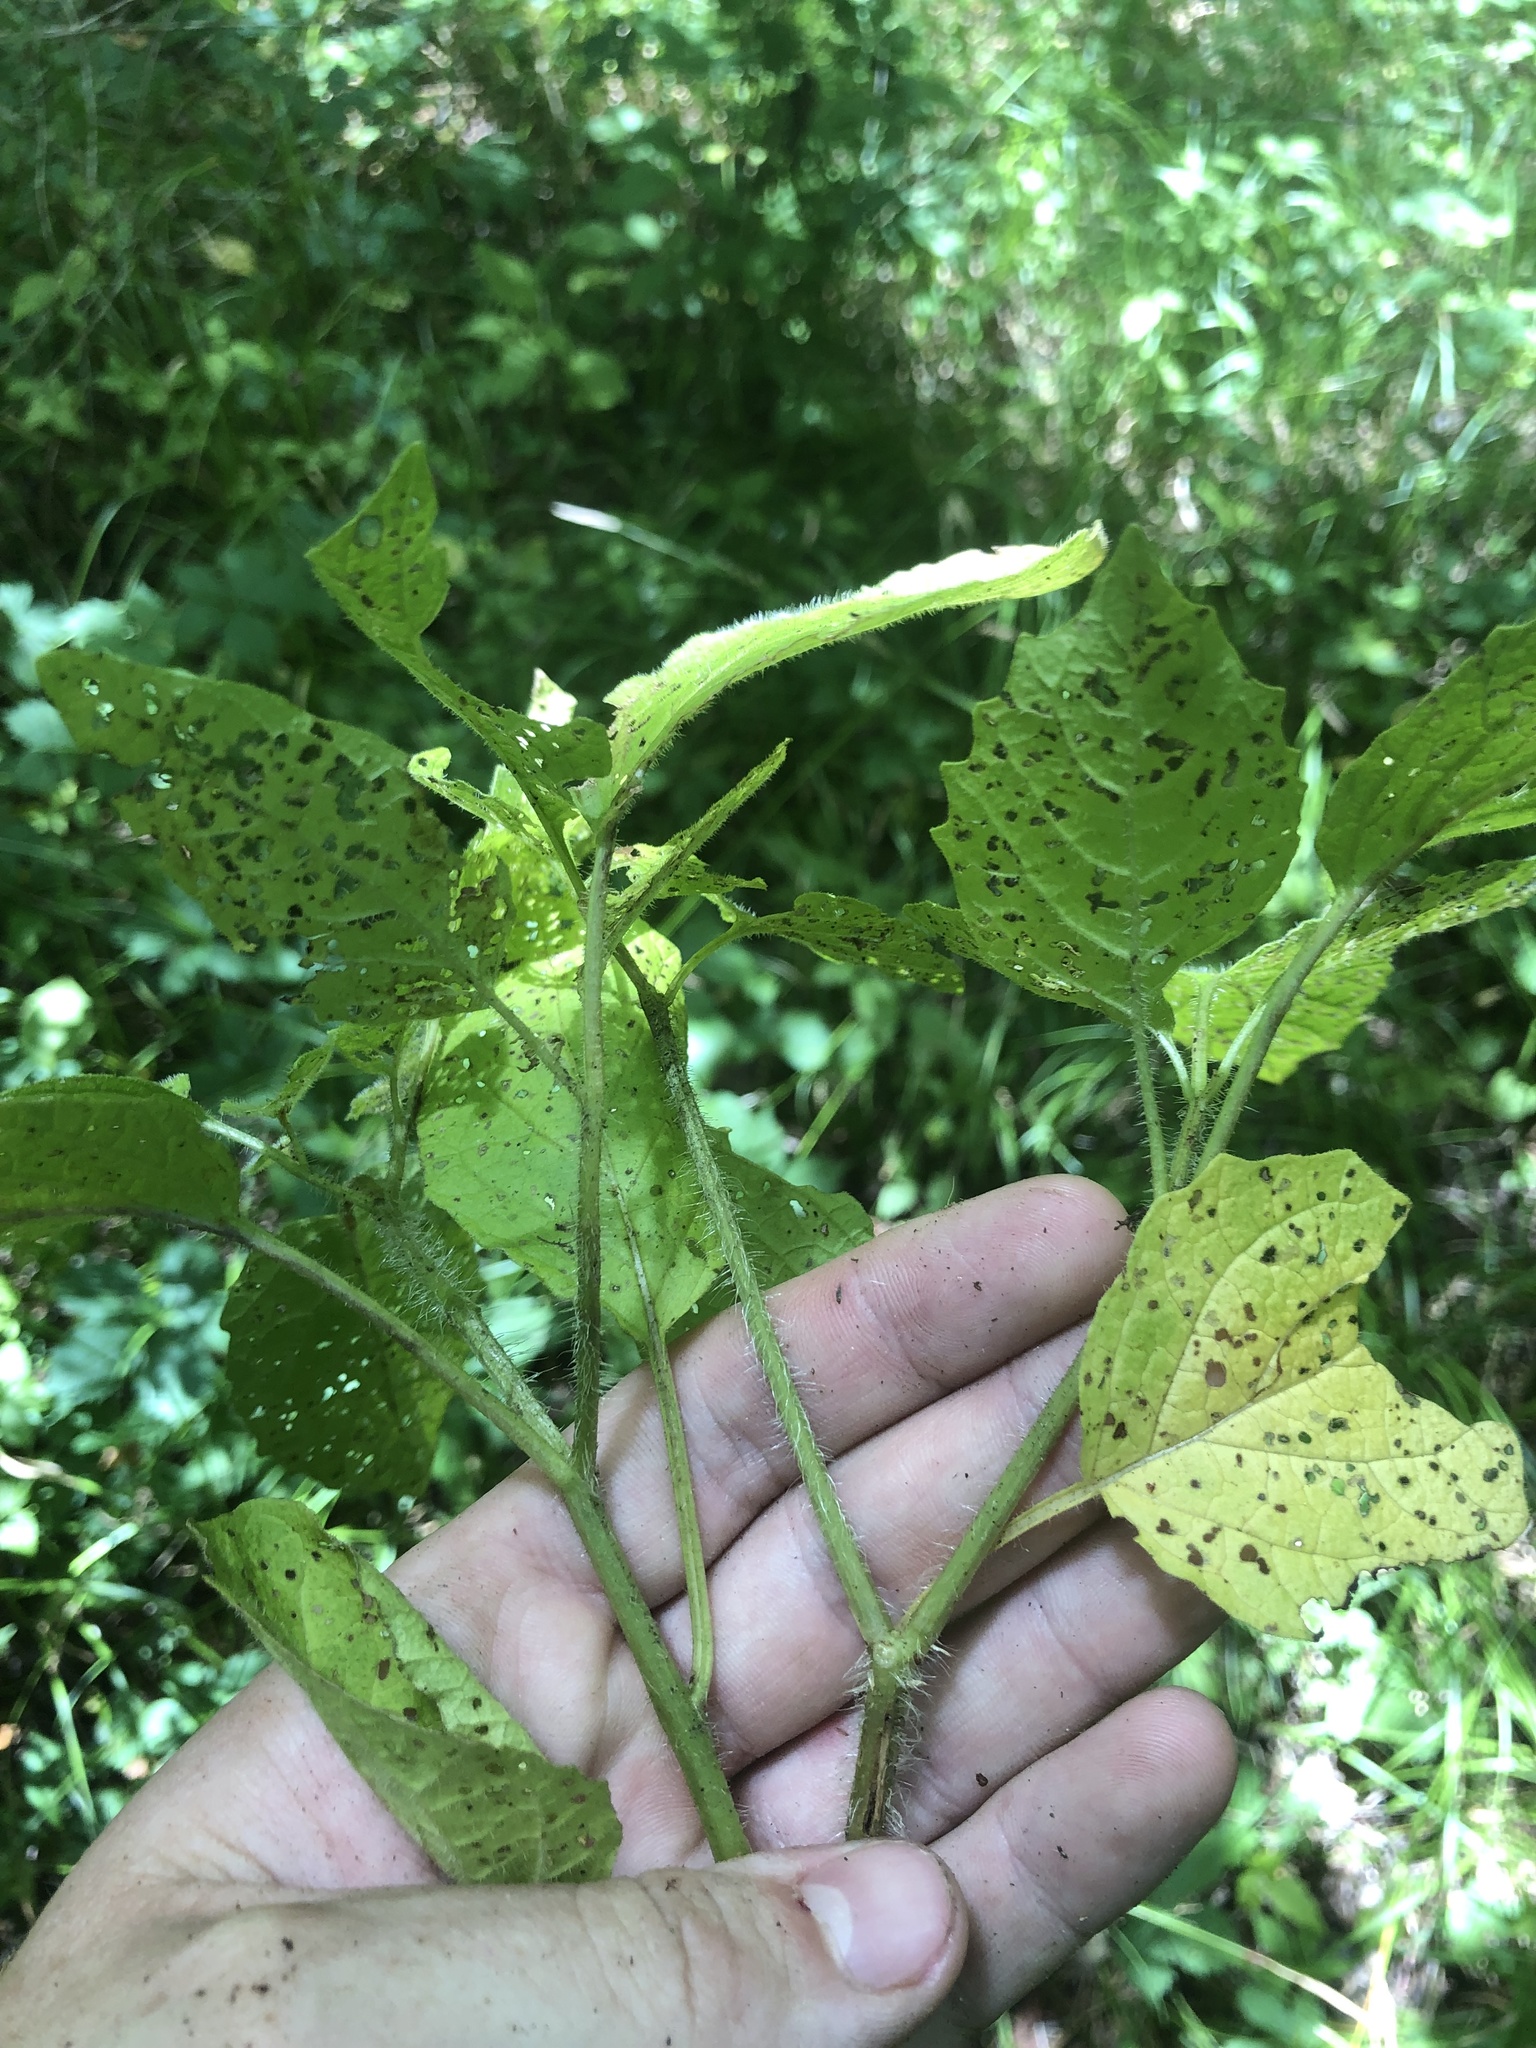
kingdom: Plantae
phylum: Tracheophyta
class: Magnoliopsida
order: Solanales
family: Solanaceae
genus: Physalis
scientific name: Physalis heterophylla
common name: Clammy ground-cherry
